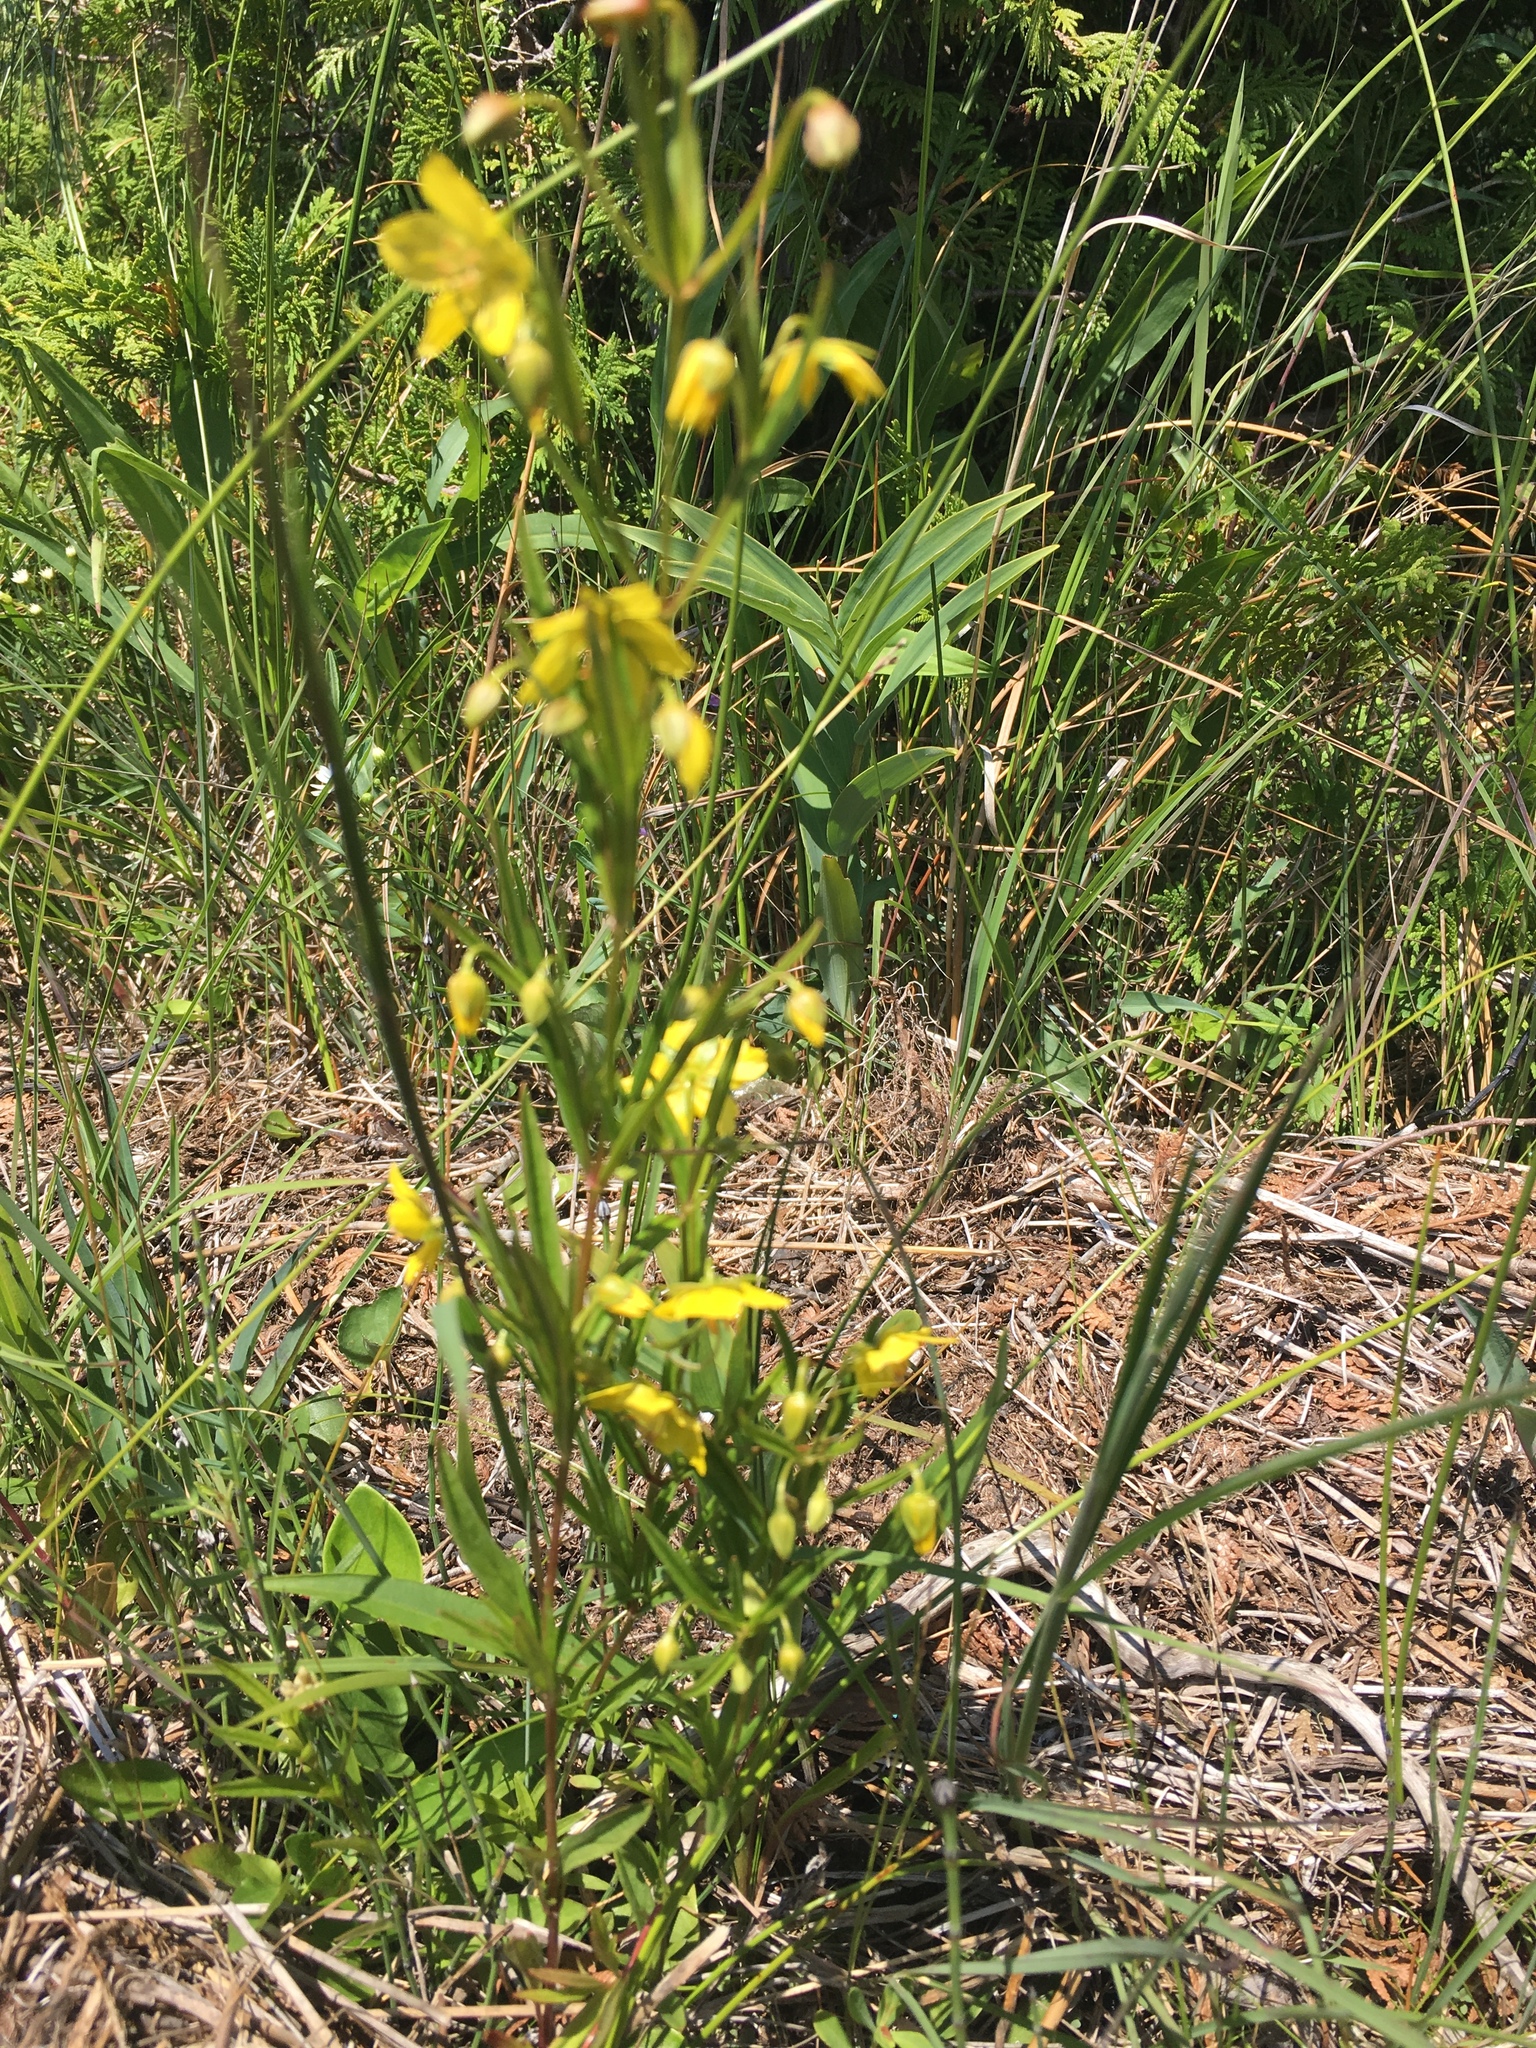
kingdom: Plantae
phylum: Tracheophyta
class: Magnoliopsida
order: Ericales
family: Primulaceae
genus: Lysimachia
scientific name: Lysimachia quadriflora
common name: Four-flowered loosestrife
